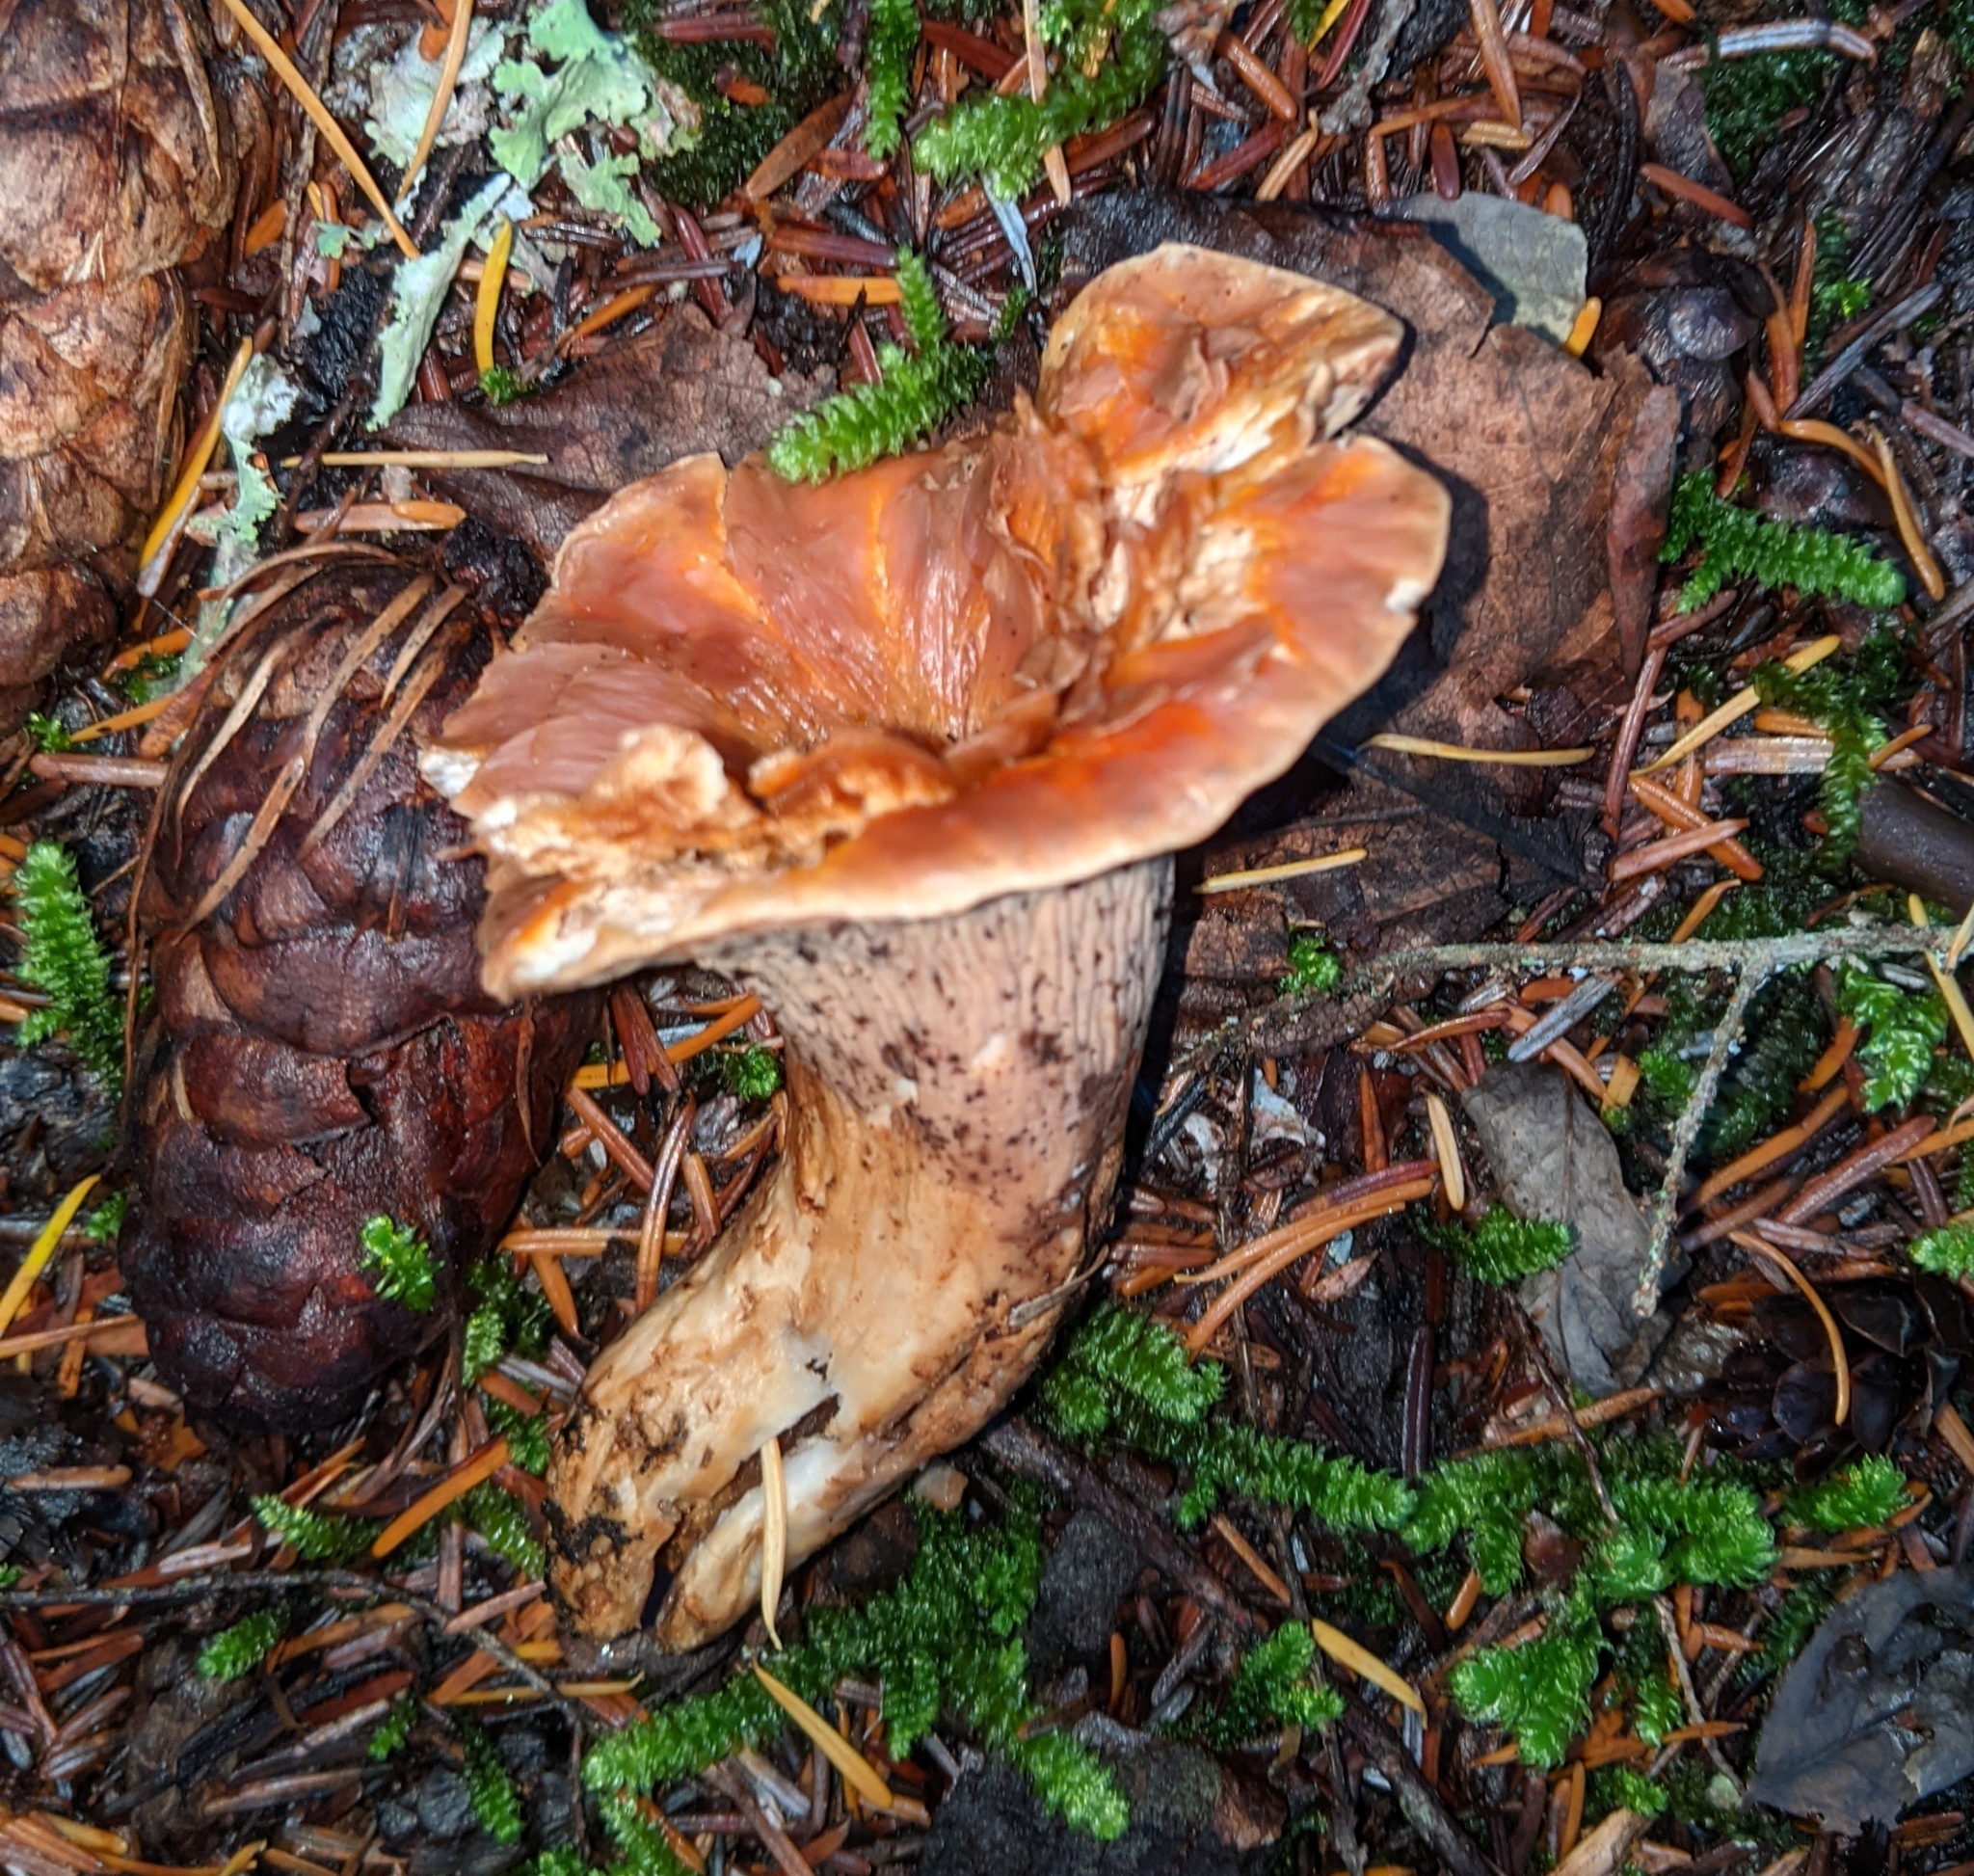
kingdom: Fungi
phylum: Basidiomycota
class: Agaricomycetes
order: Gomphales
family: Gomphaceae
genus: Turbinellus
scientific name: Turbinellus floccosus
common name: Scaly chanterelle
